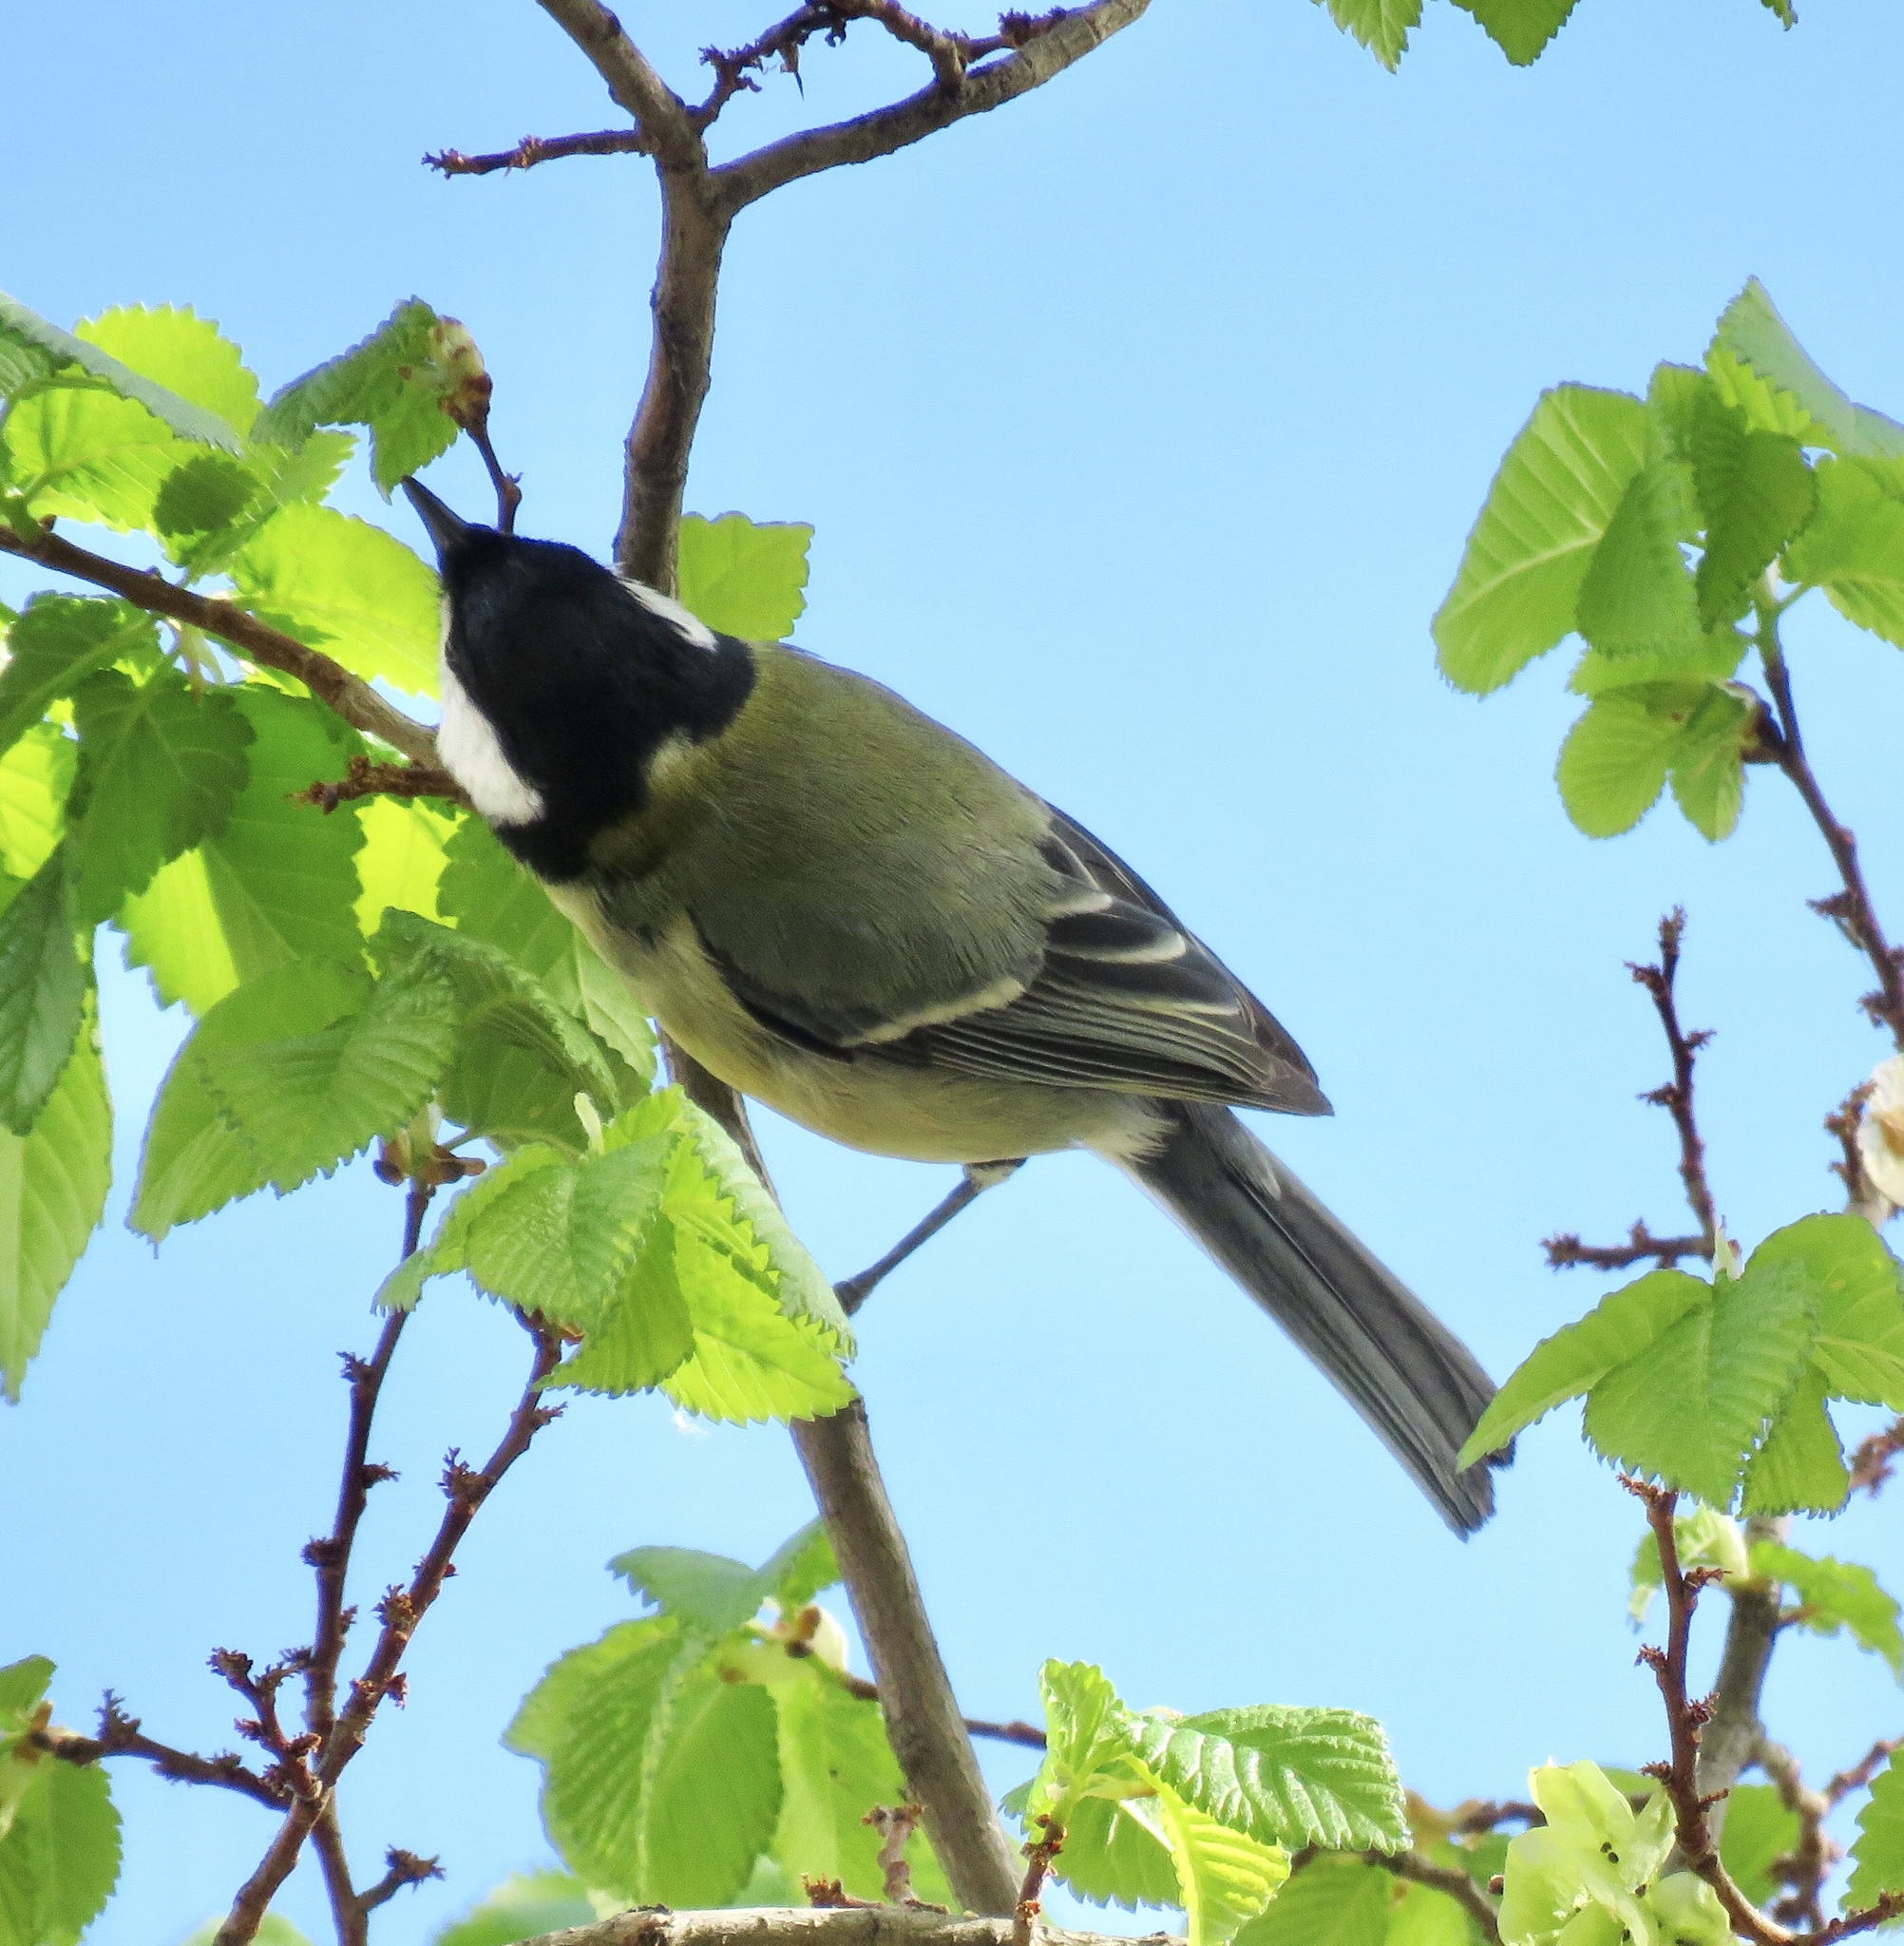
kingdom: Animalia
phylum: Chordata
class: Aves
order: Passeriformes
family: Paridae
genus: Parus
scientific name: Parus major
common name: Great tit
